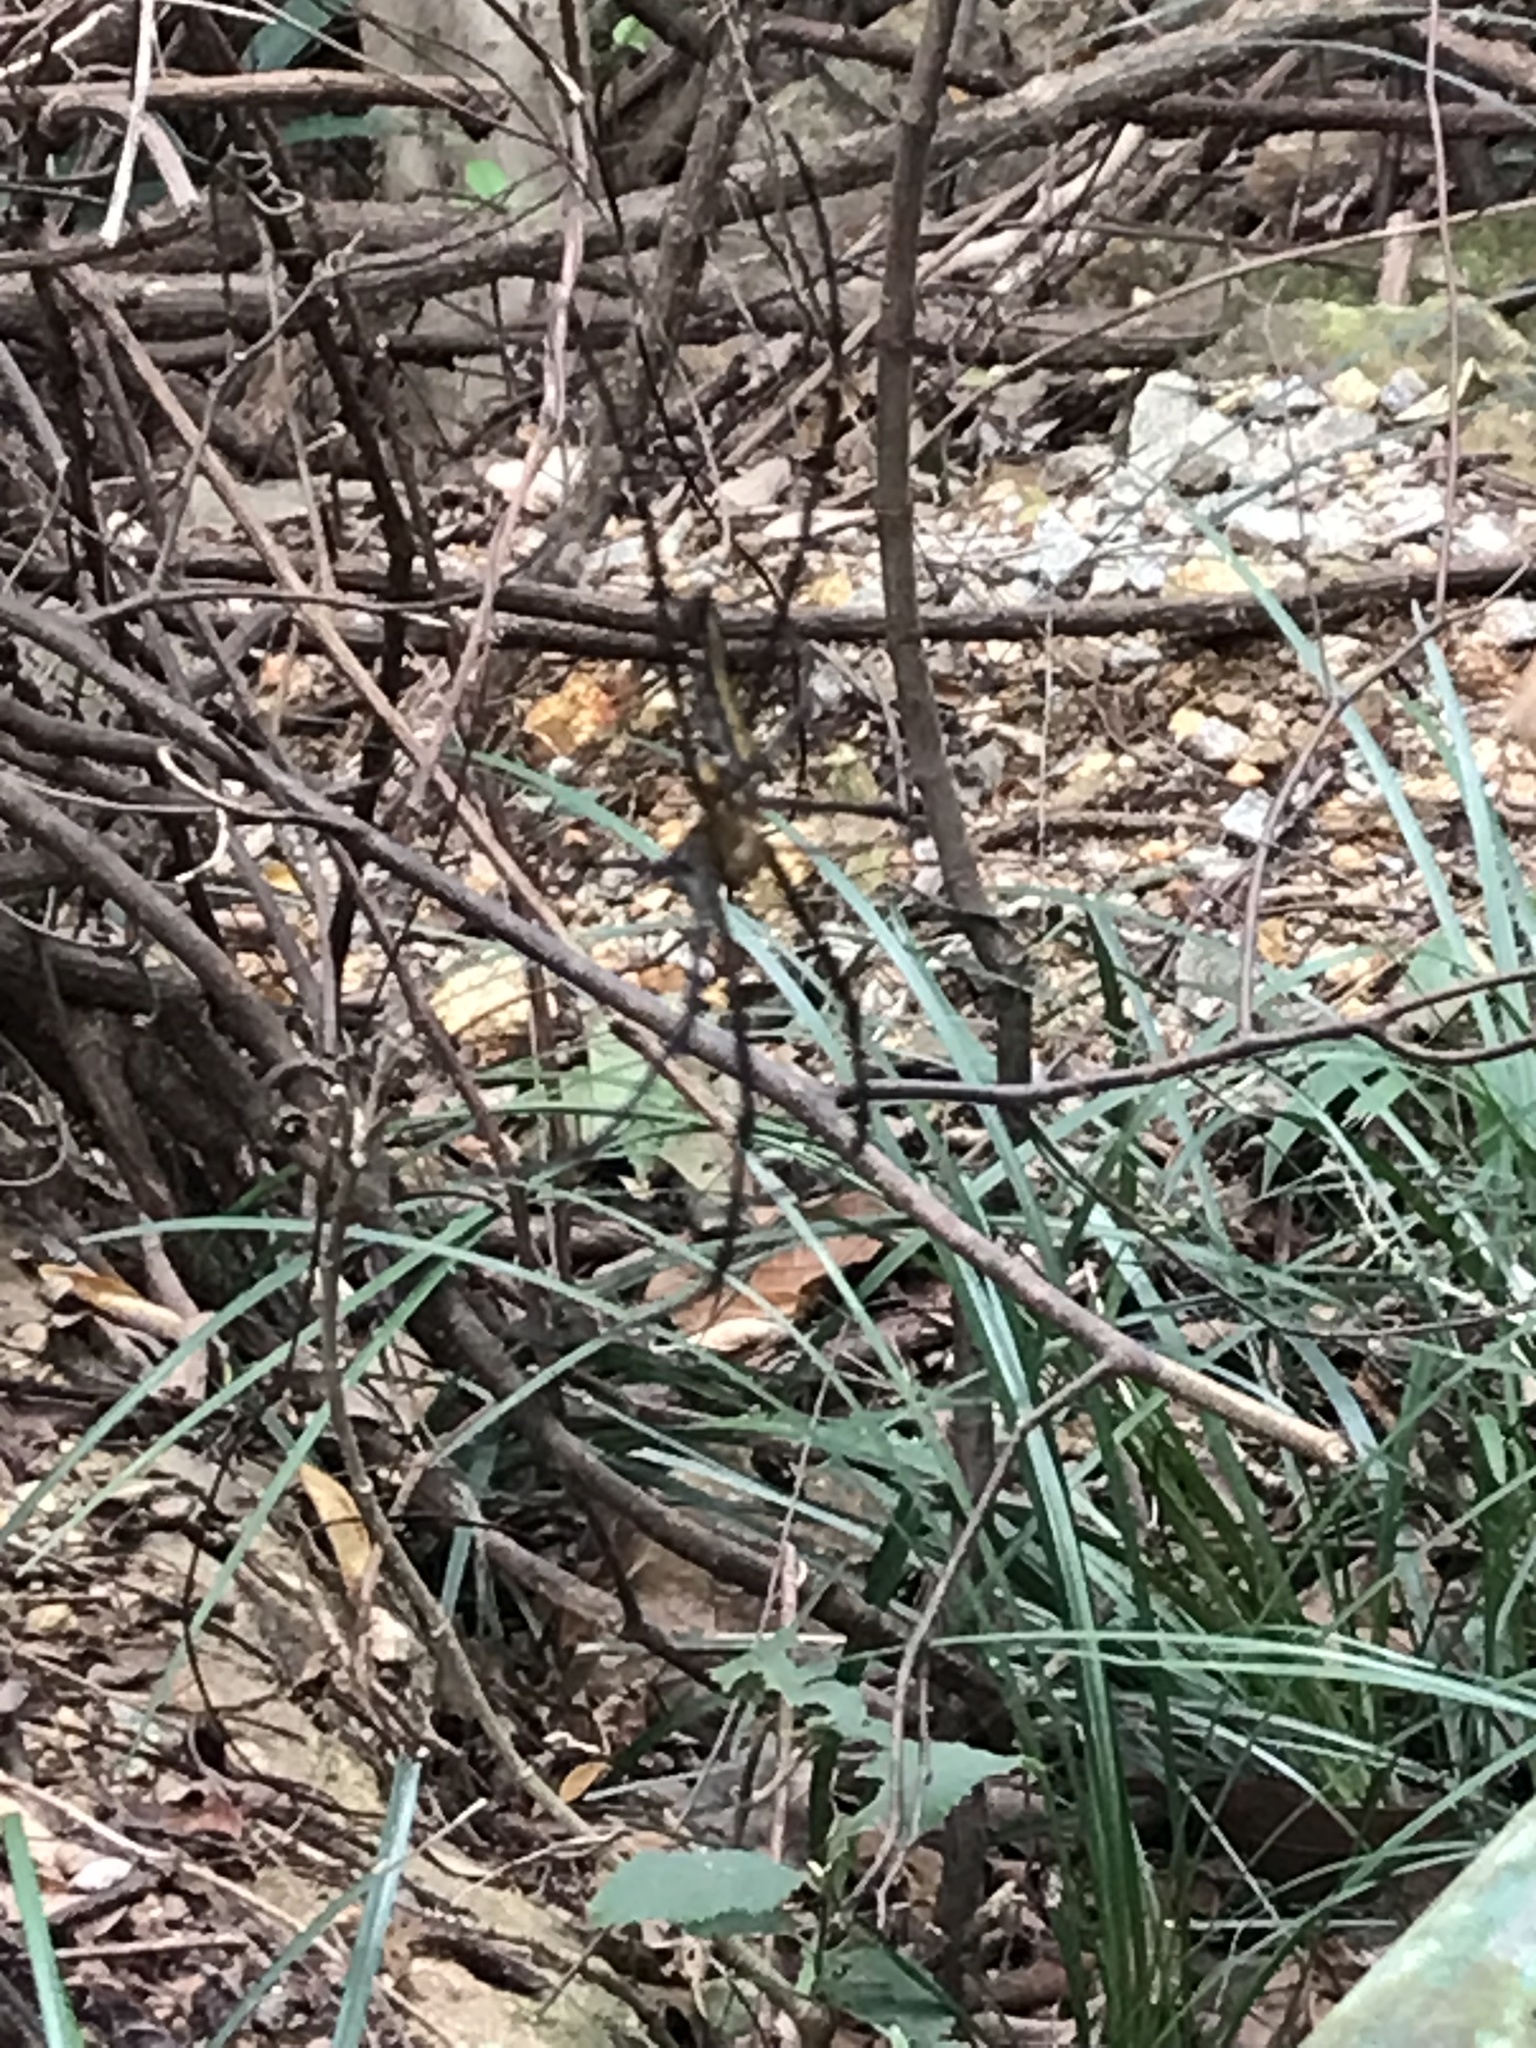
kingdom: Animalia
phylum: Arthropoda
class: Arachnida
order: Araneae
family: Araneidae
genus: Nephila
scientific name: Nephila pilipes
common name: Giant golden orb weaver
